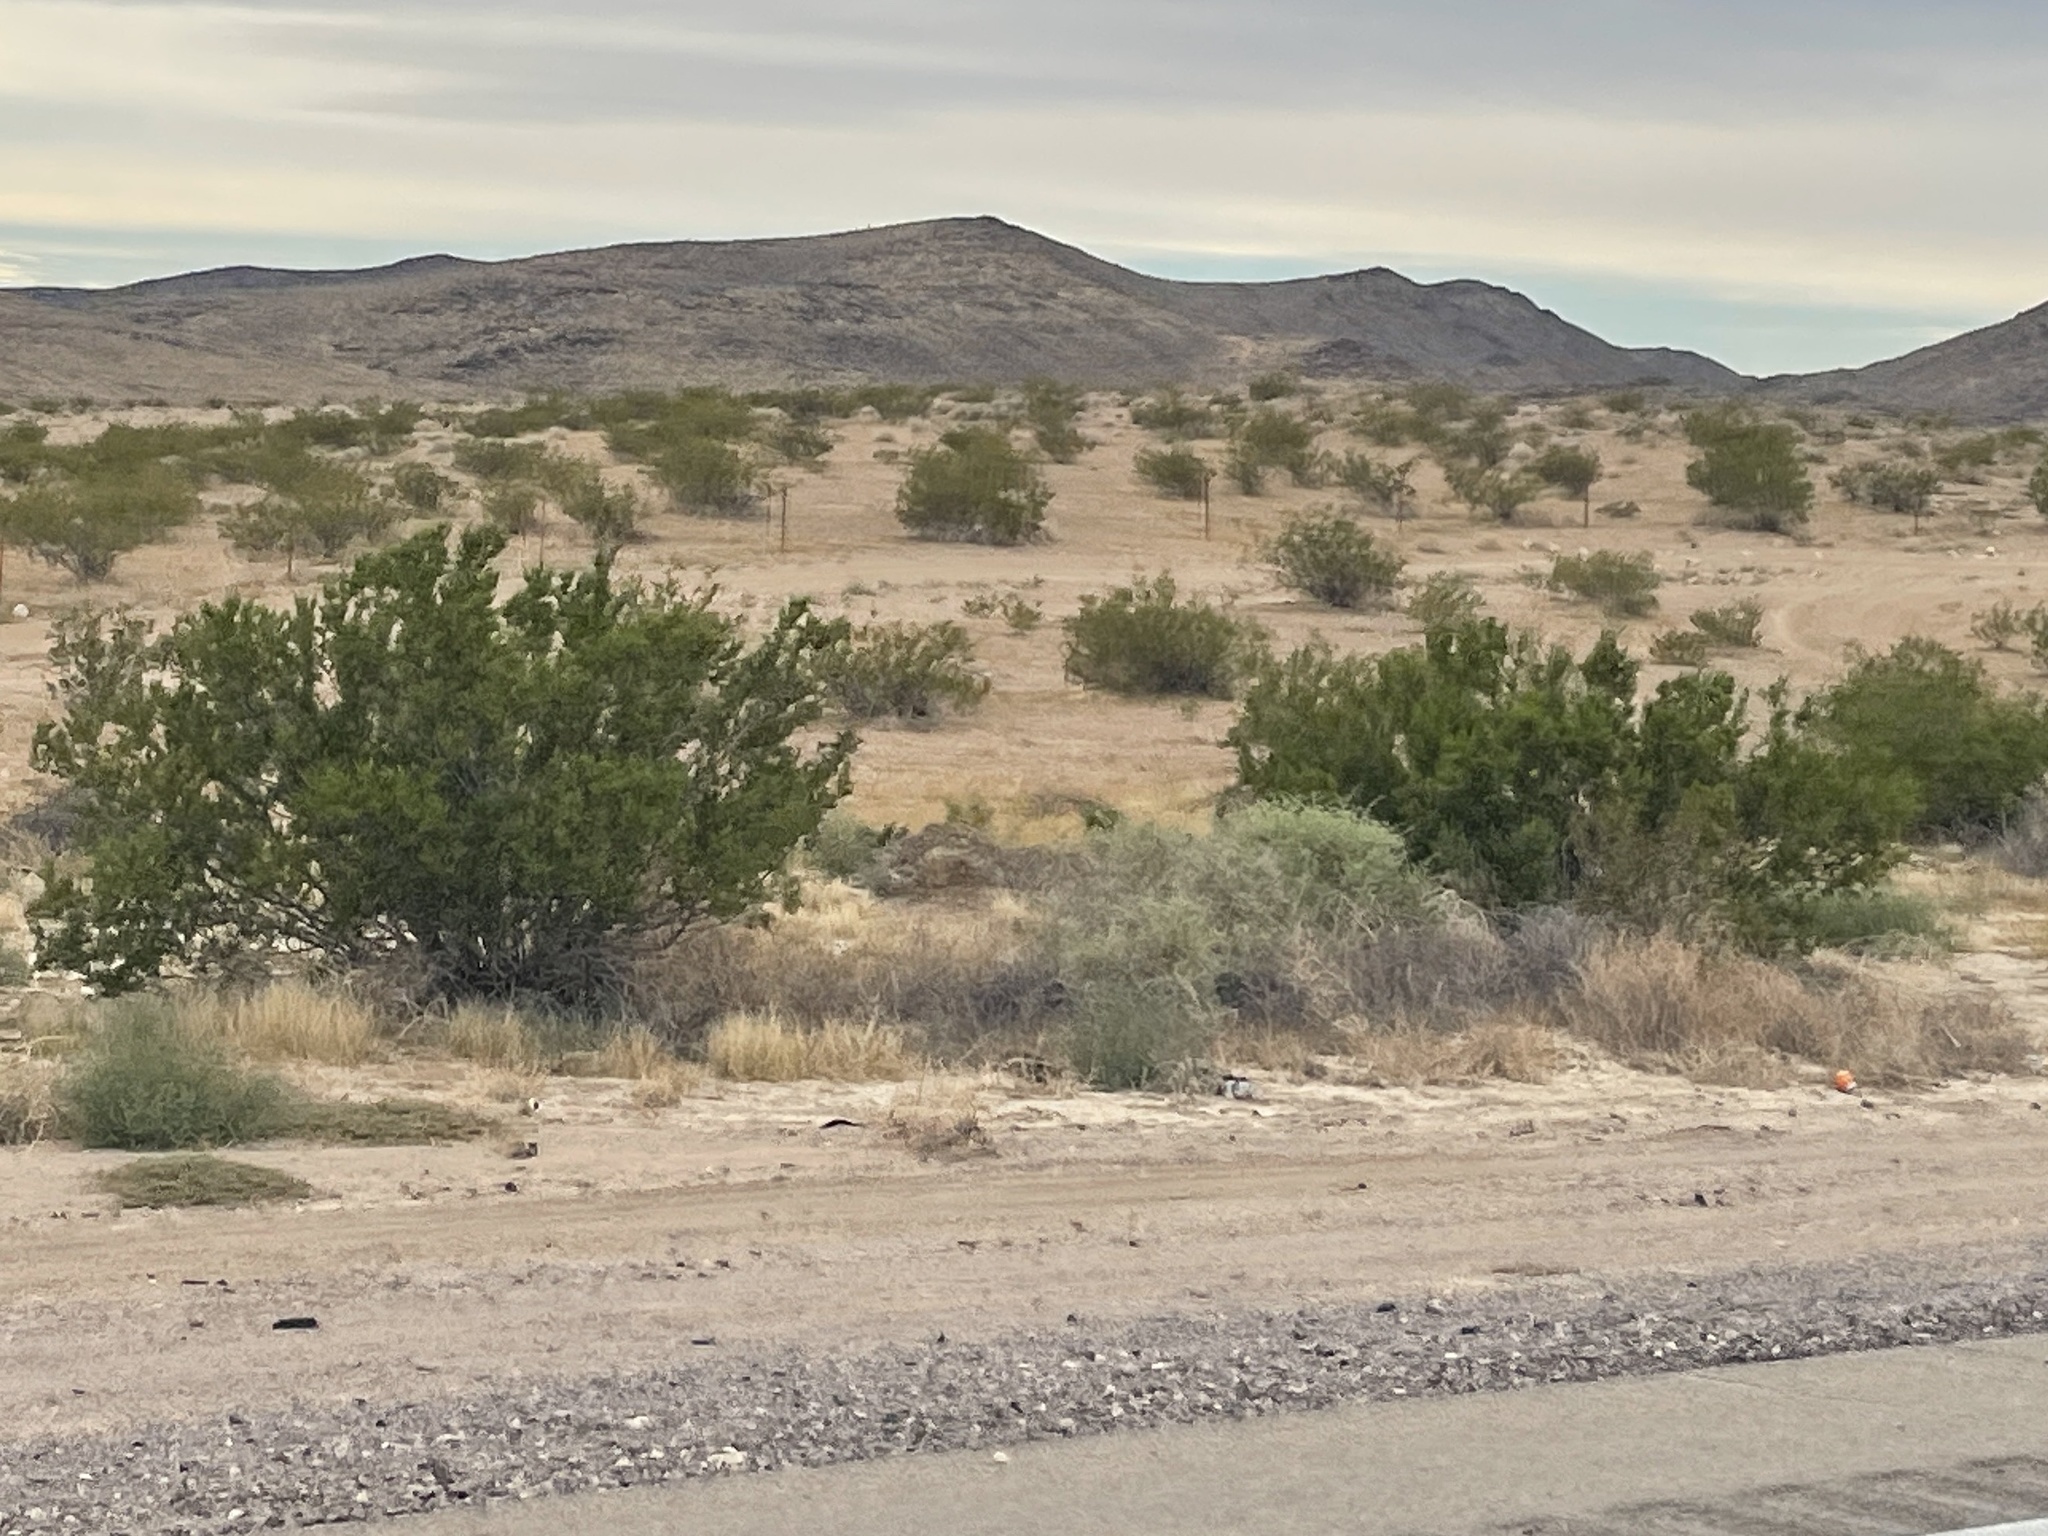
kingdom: Plantae
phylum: Tracheophyta
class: Magnoliopsida
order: Zygophyllales
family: Zygophyllaceae
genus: Larrea
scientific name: Larrea tridentata
